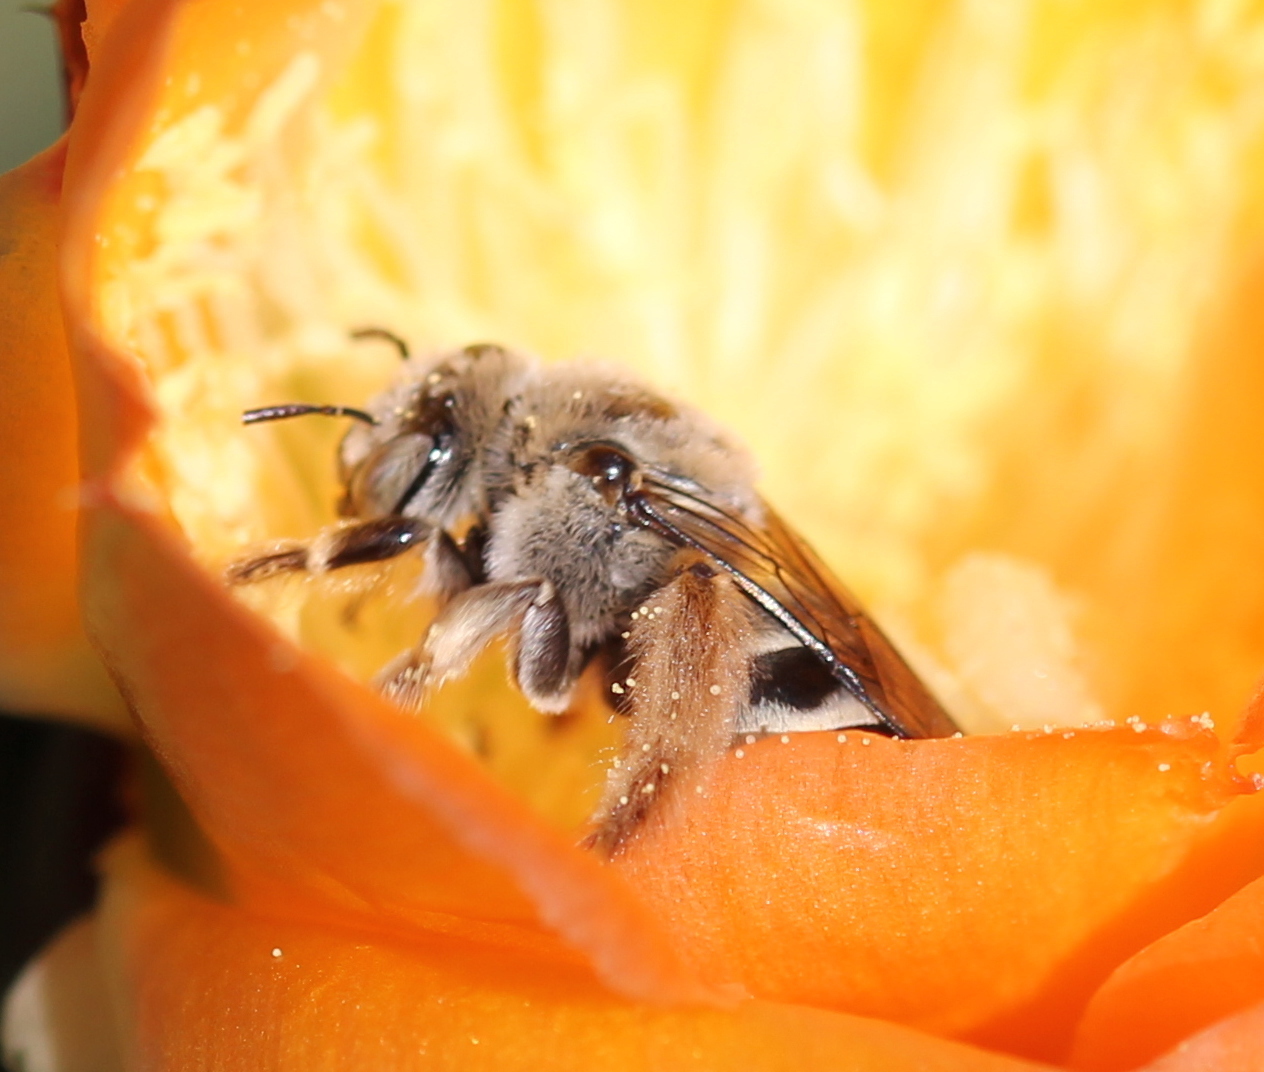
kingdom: Animalia
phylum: Arthropoda
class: Insecta
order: Hymenoptera
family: Apidae
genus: Diadasia
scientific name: Diadasia
